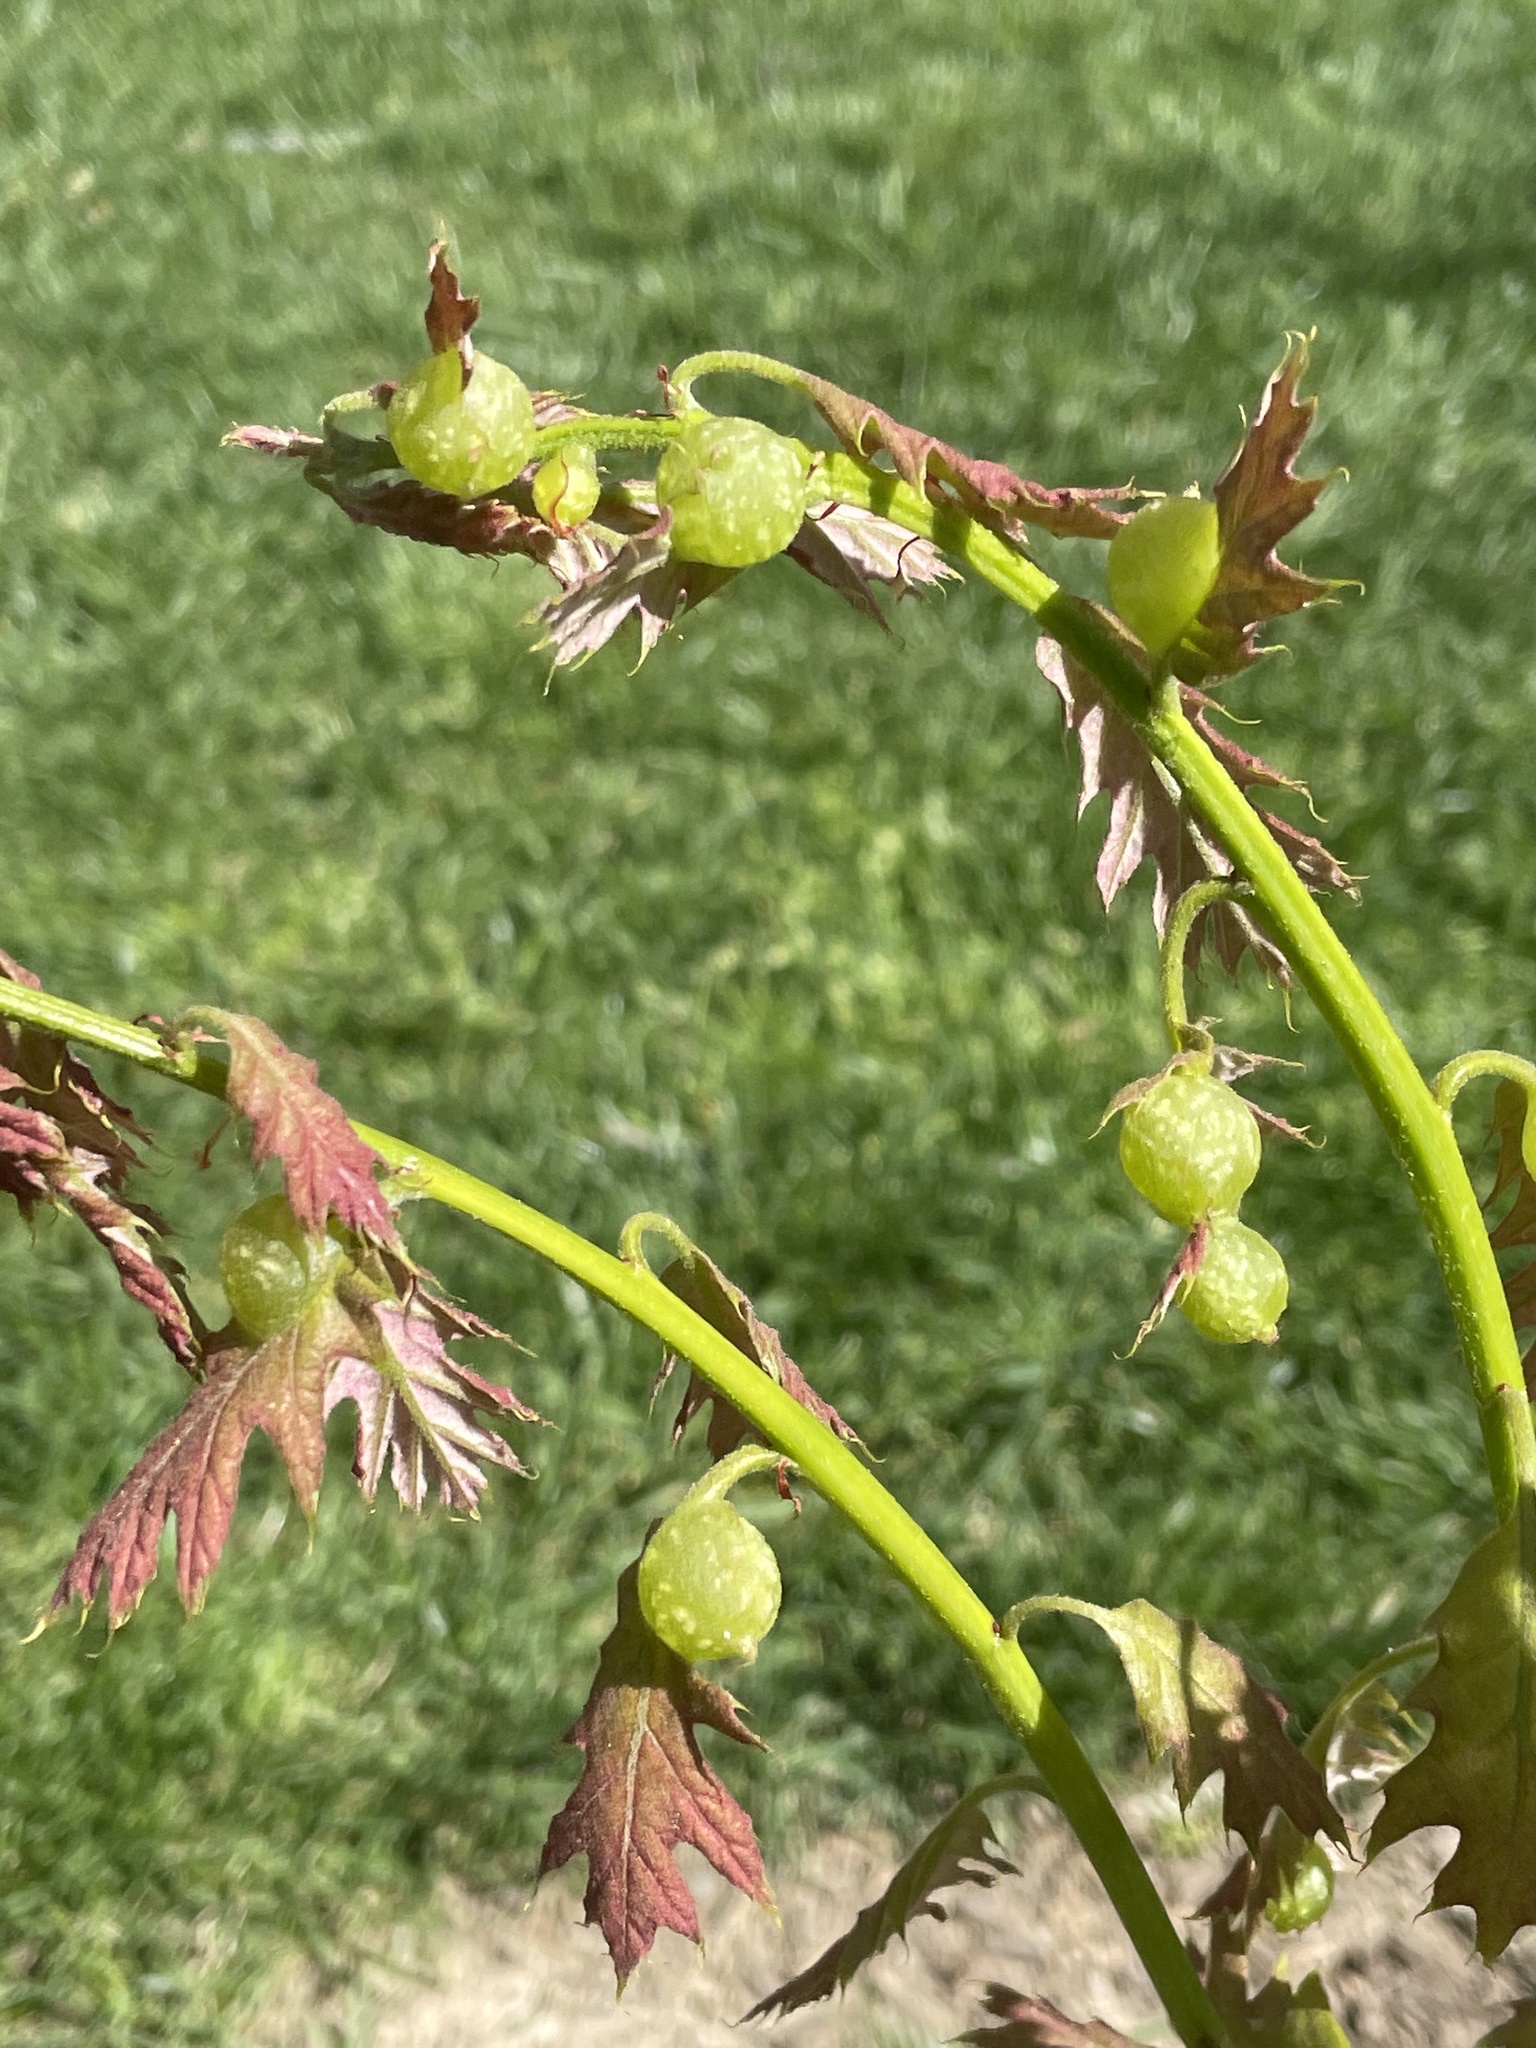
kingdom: Animalia
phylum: Arthropoda
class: Insecta
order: Hymenoptera
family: Cynipidae
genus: Dryocosmus
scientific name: Dryocosmus quercuspalustris
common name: Succulent oak gall wasp
